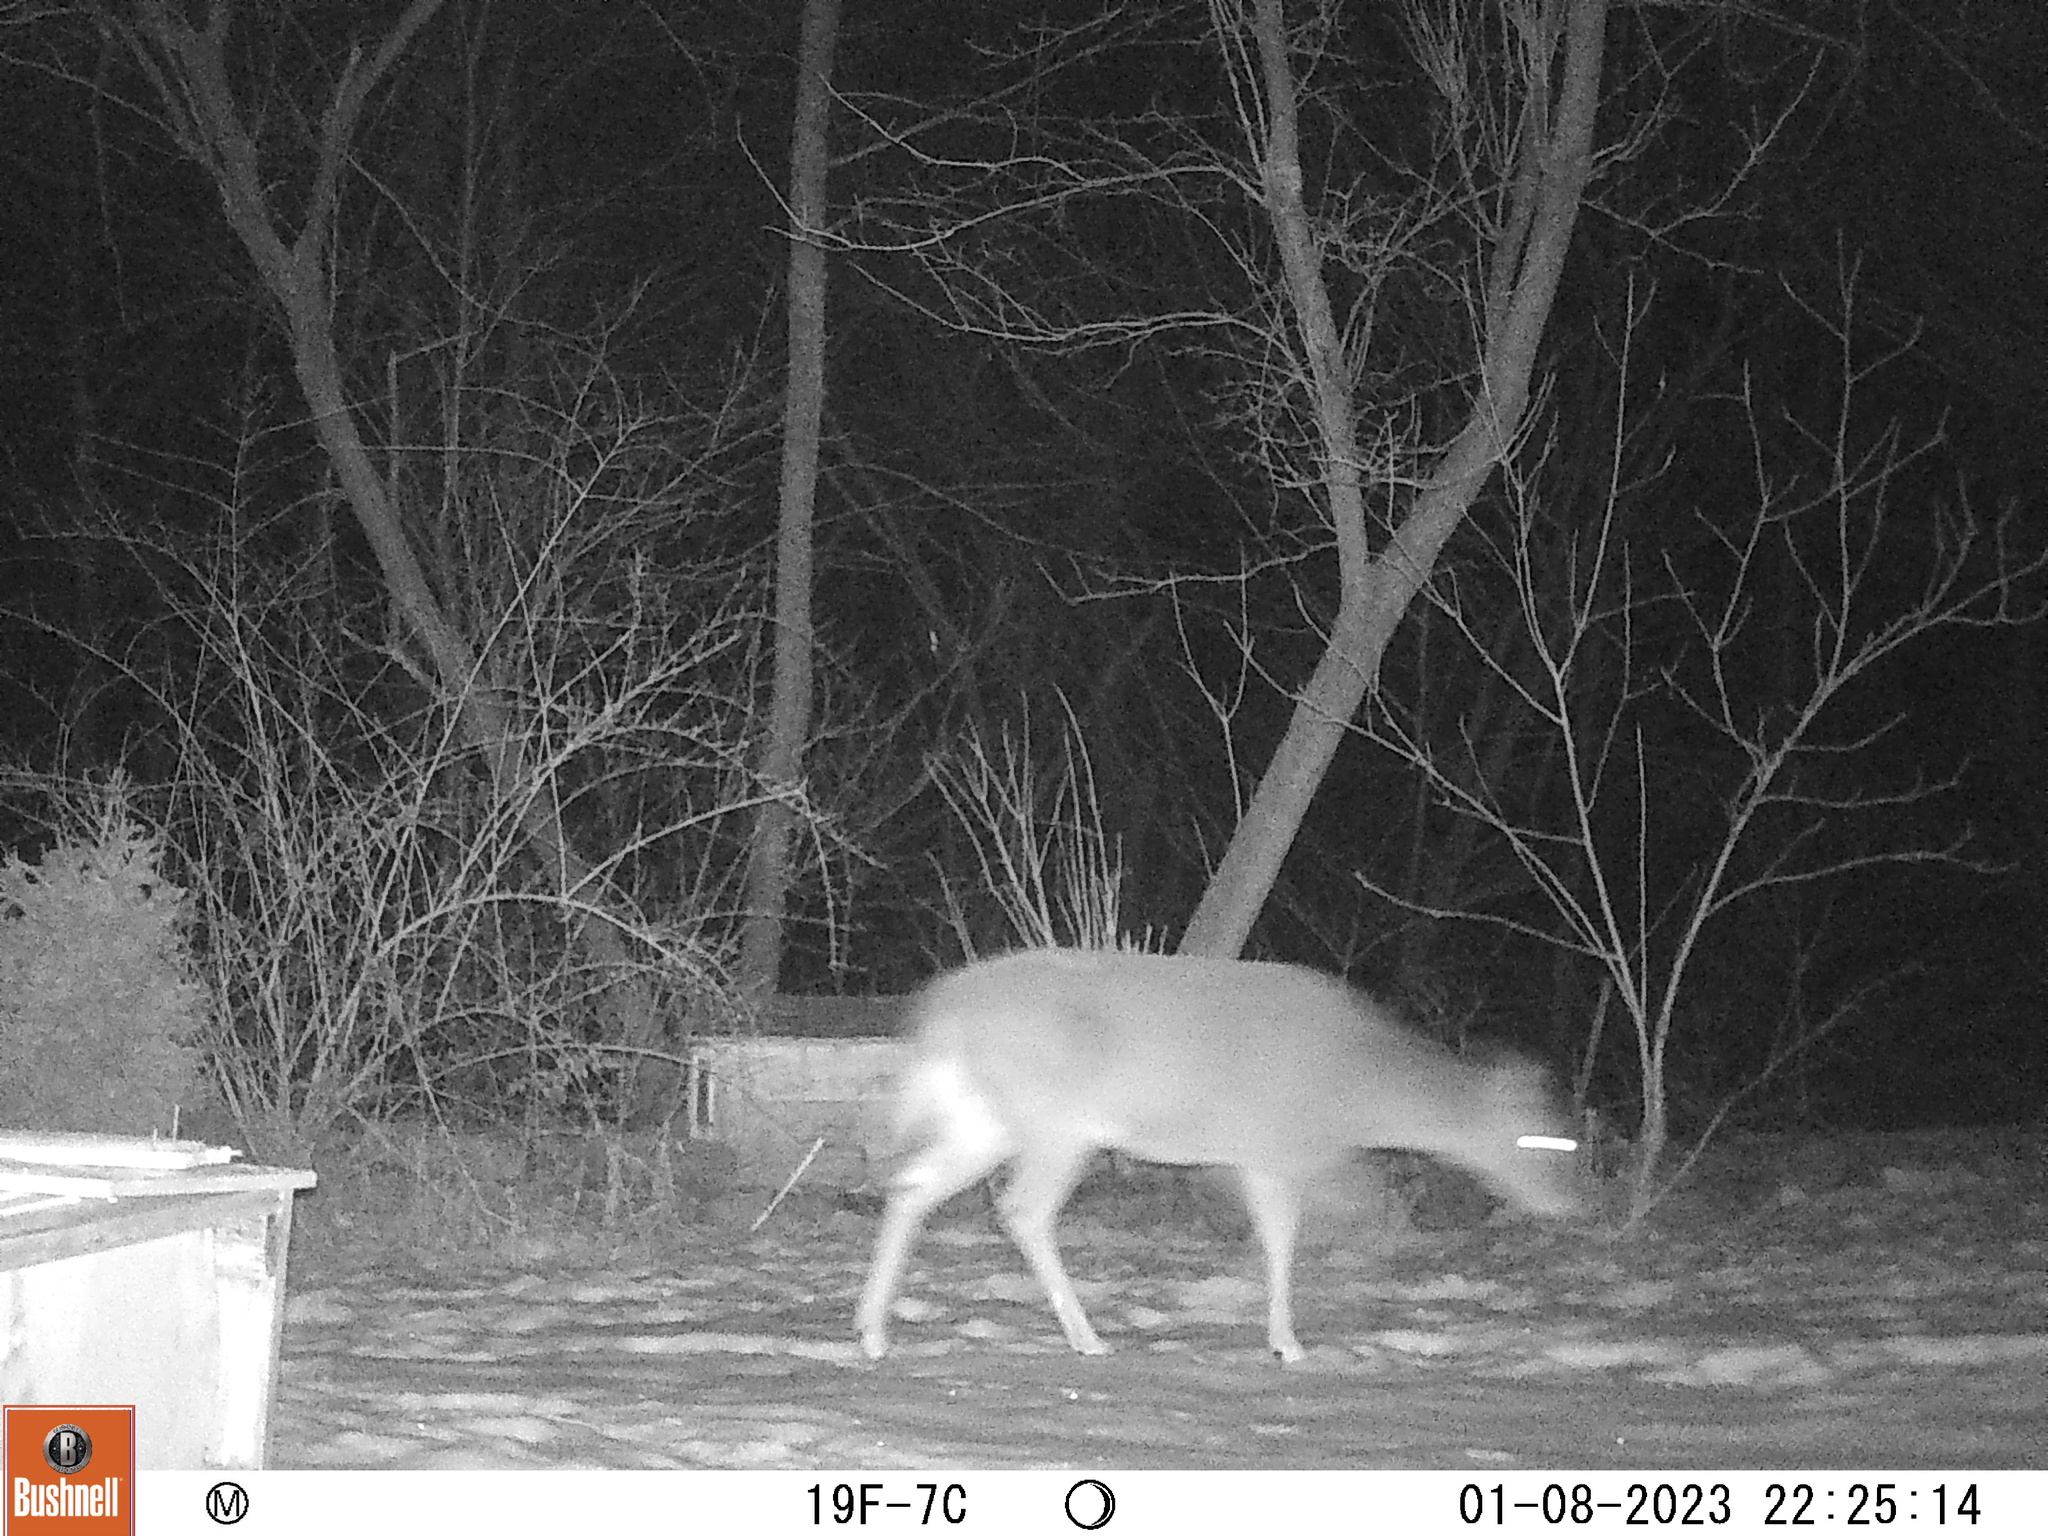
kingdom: Animalia
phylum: Chordata
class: Mammalia
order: Artiodactyla
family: Cervidae
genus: Odocoileus
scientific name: Odocoileus virginianus
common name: White-tailed deer
